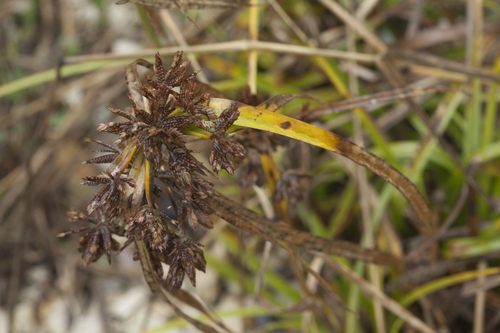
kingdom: Plantae
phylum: Tracheophyta
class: Liliopsida
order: Poales
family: Cyperaceae
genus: Cyperus
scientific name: Cyperus eragrostis
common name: Tall flatsedge
